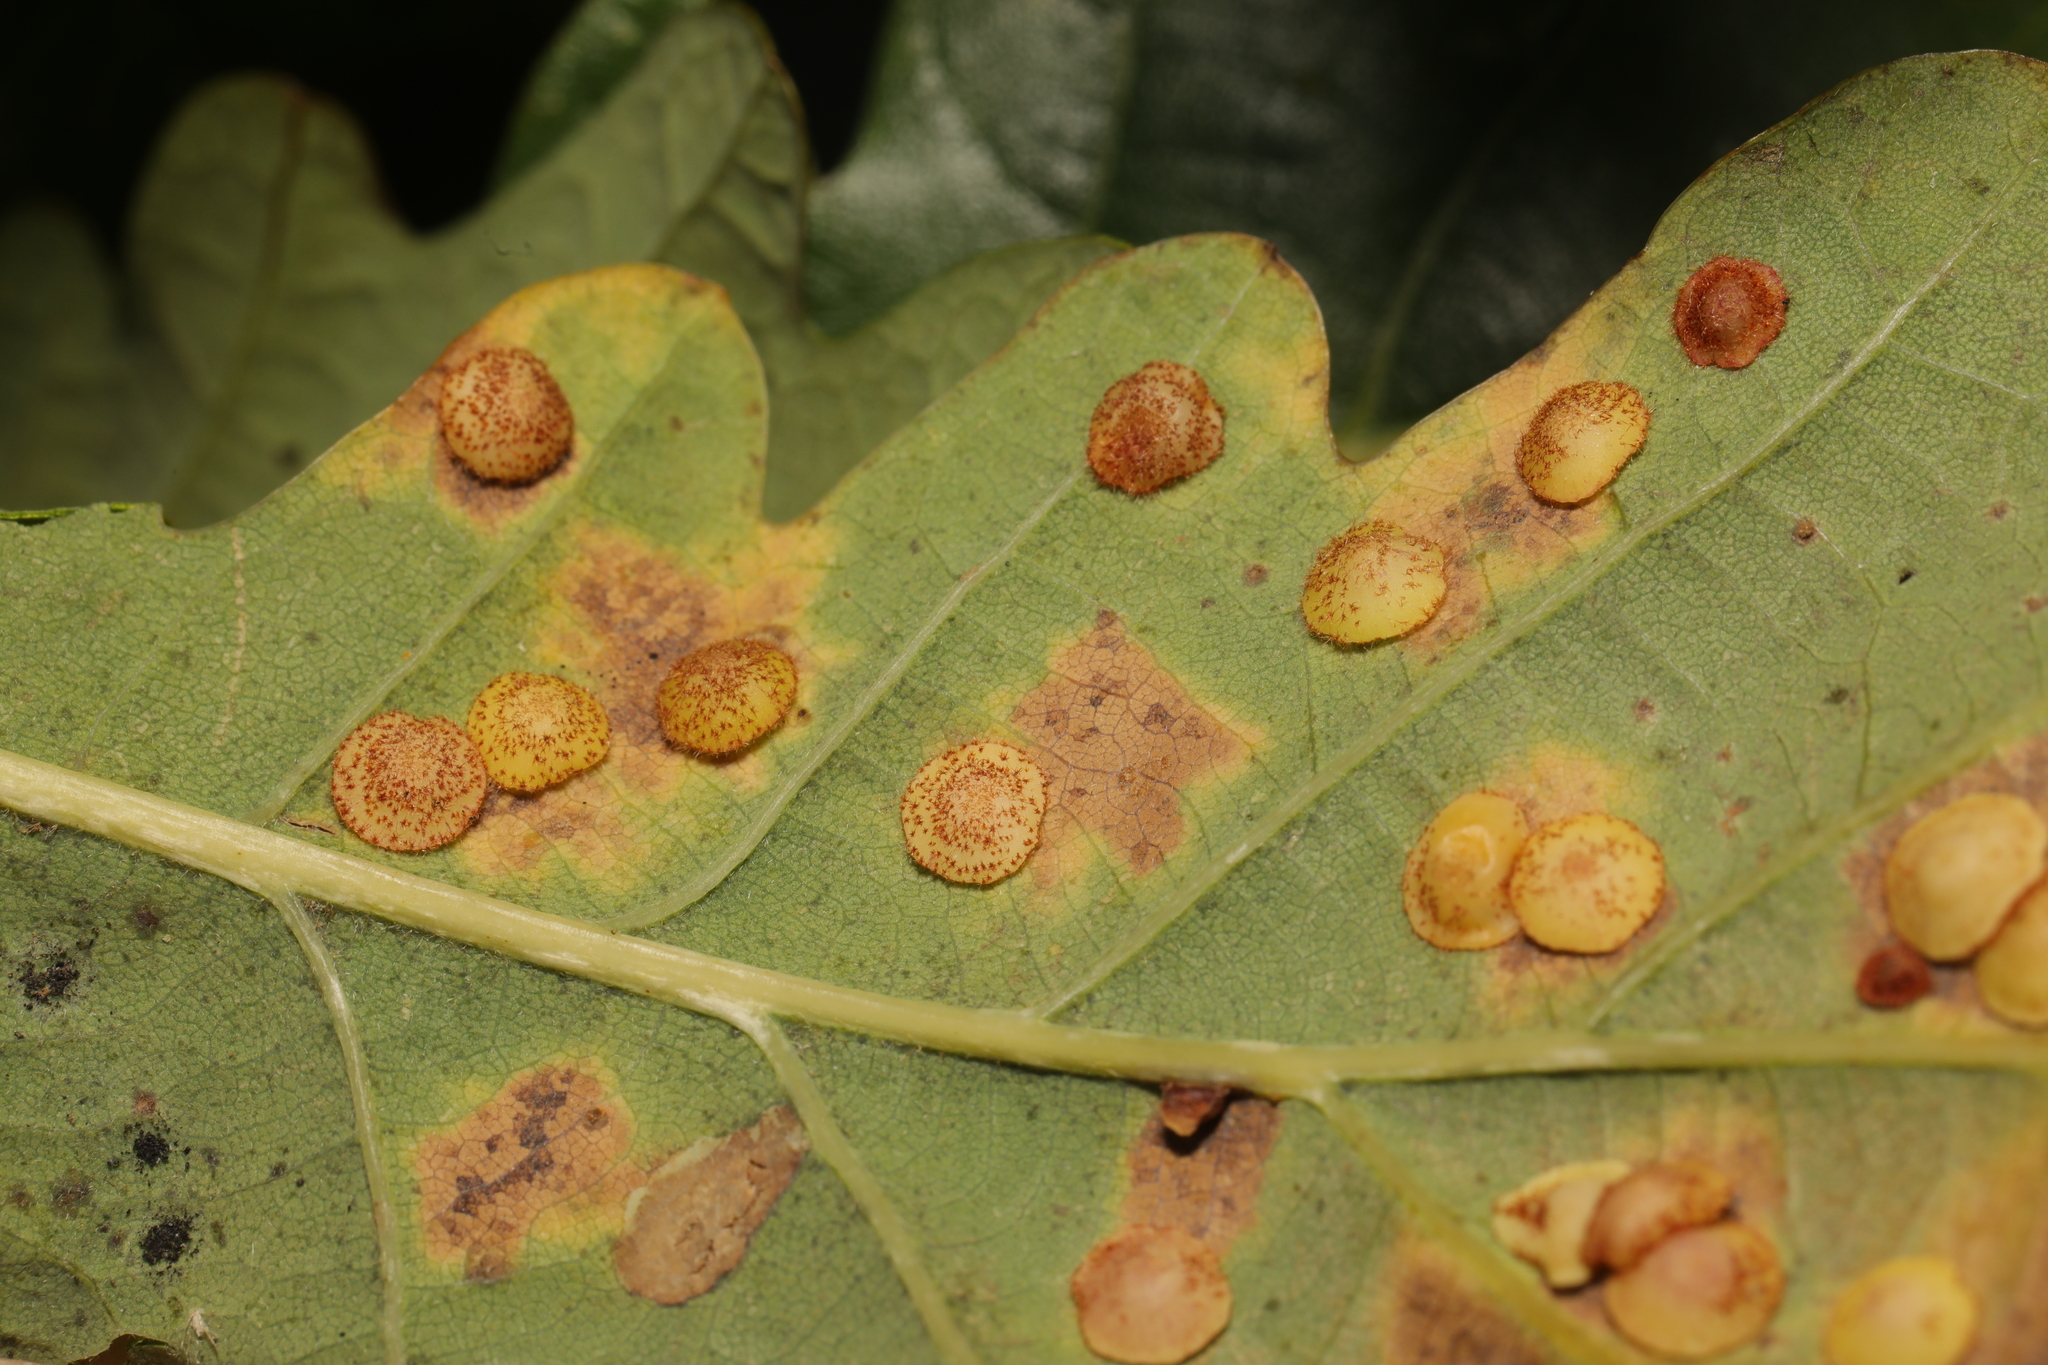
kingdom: Animalia
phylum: Arthropoda
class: Insecta
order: Hymenoptera
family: Cynipidae
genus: Neuroterus
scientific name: Neuroterus quercusbaccarum
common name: Common spangle gall
